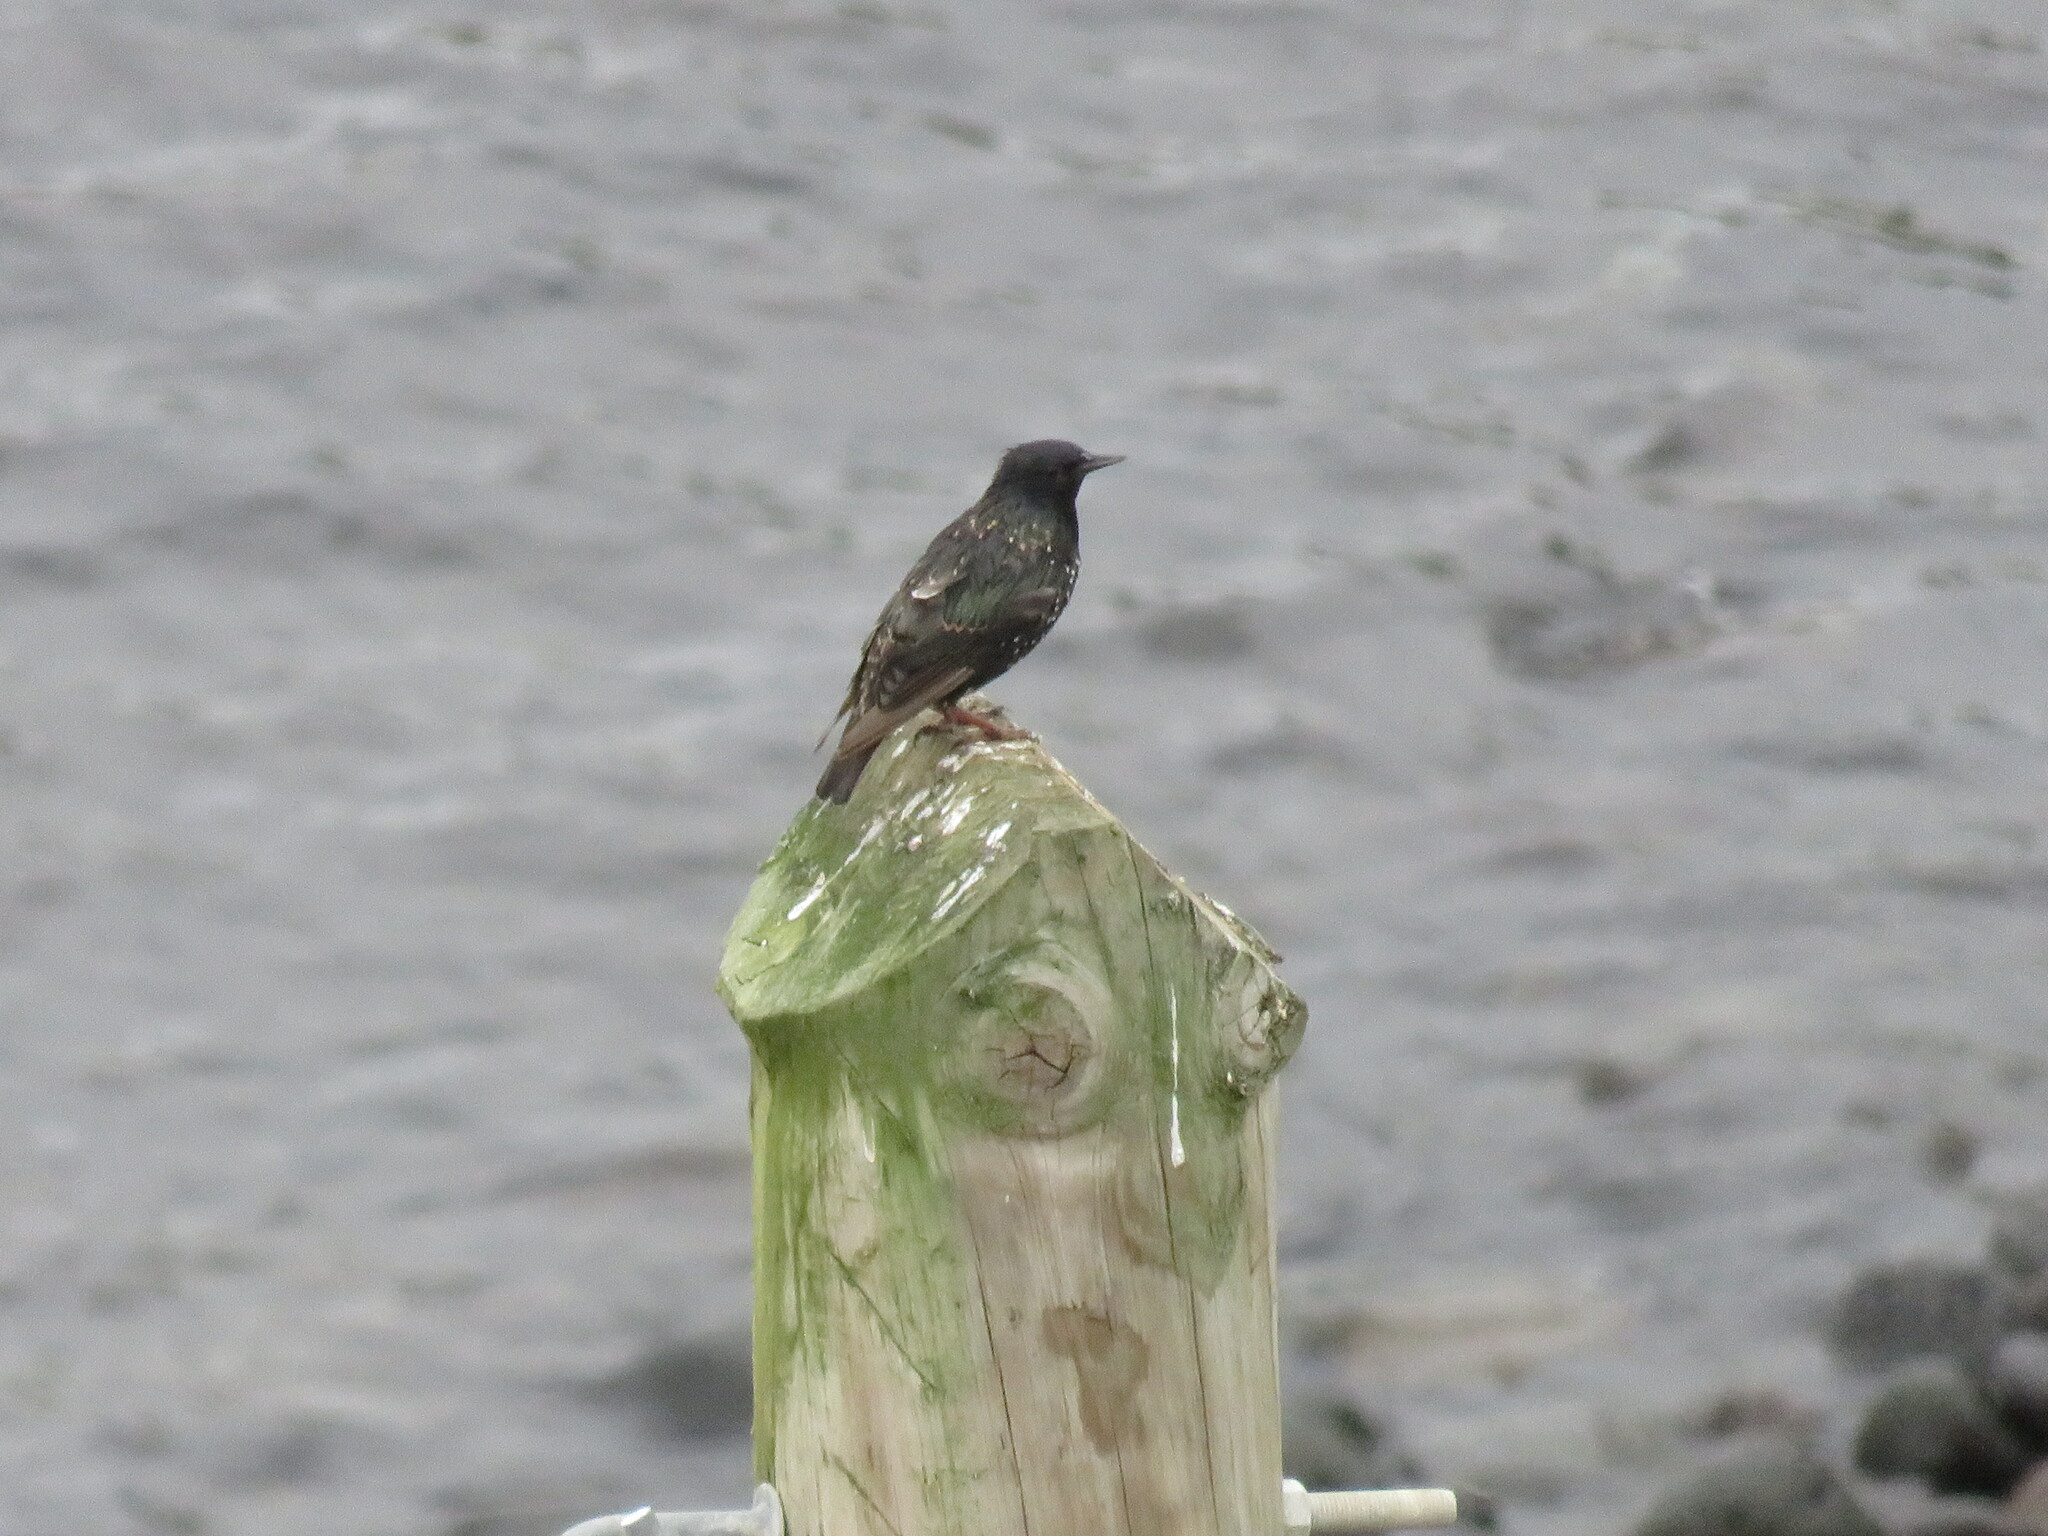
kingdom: Animalia
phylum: Chordata
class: Aves
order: Passeriformes
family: Sturnidae
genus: Sturnus
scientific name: Sturnus vulgaris
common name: Common starling
